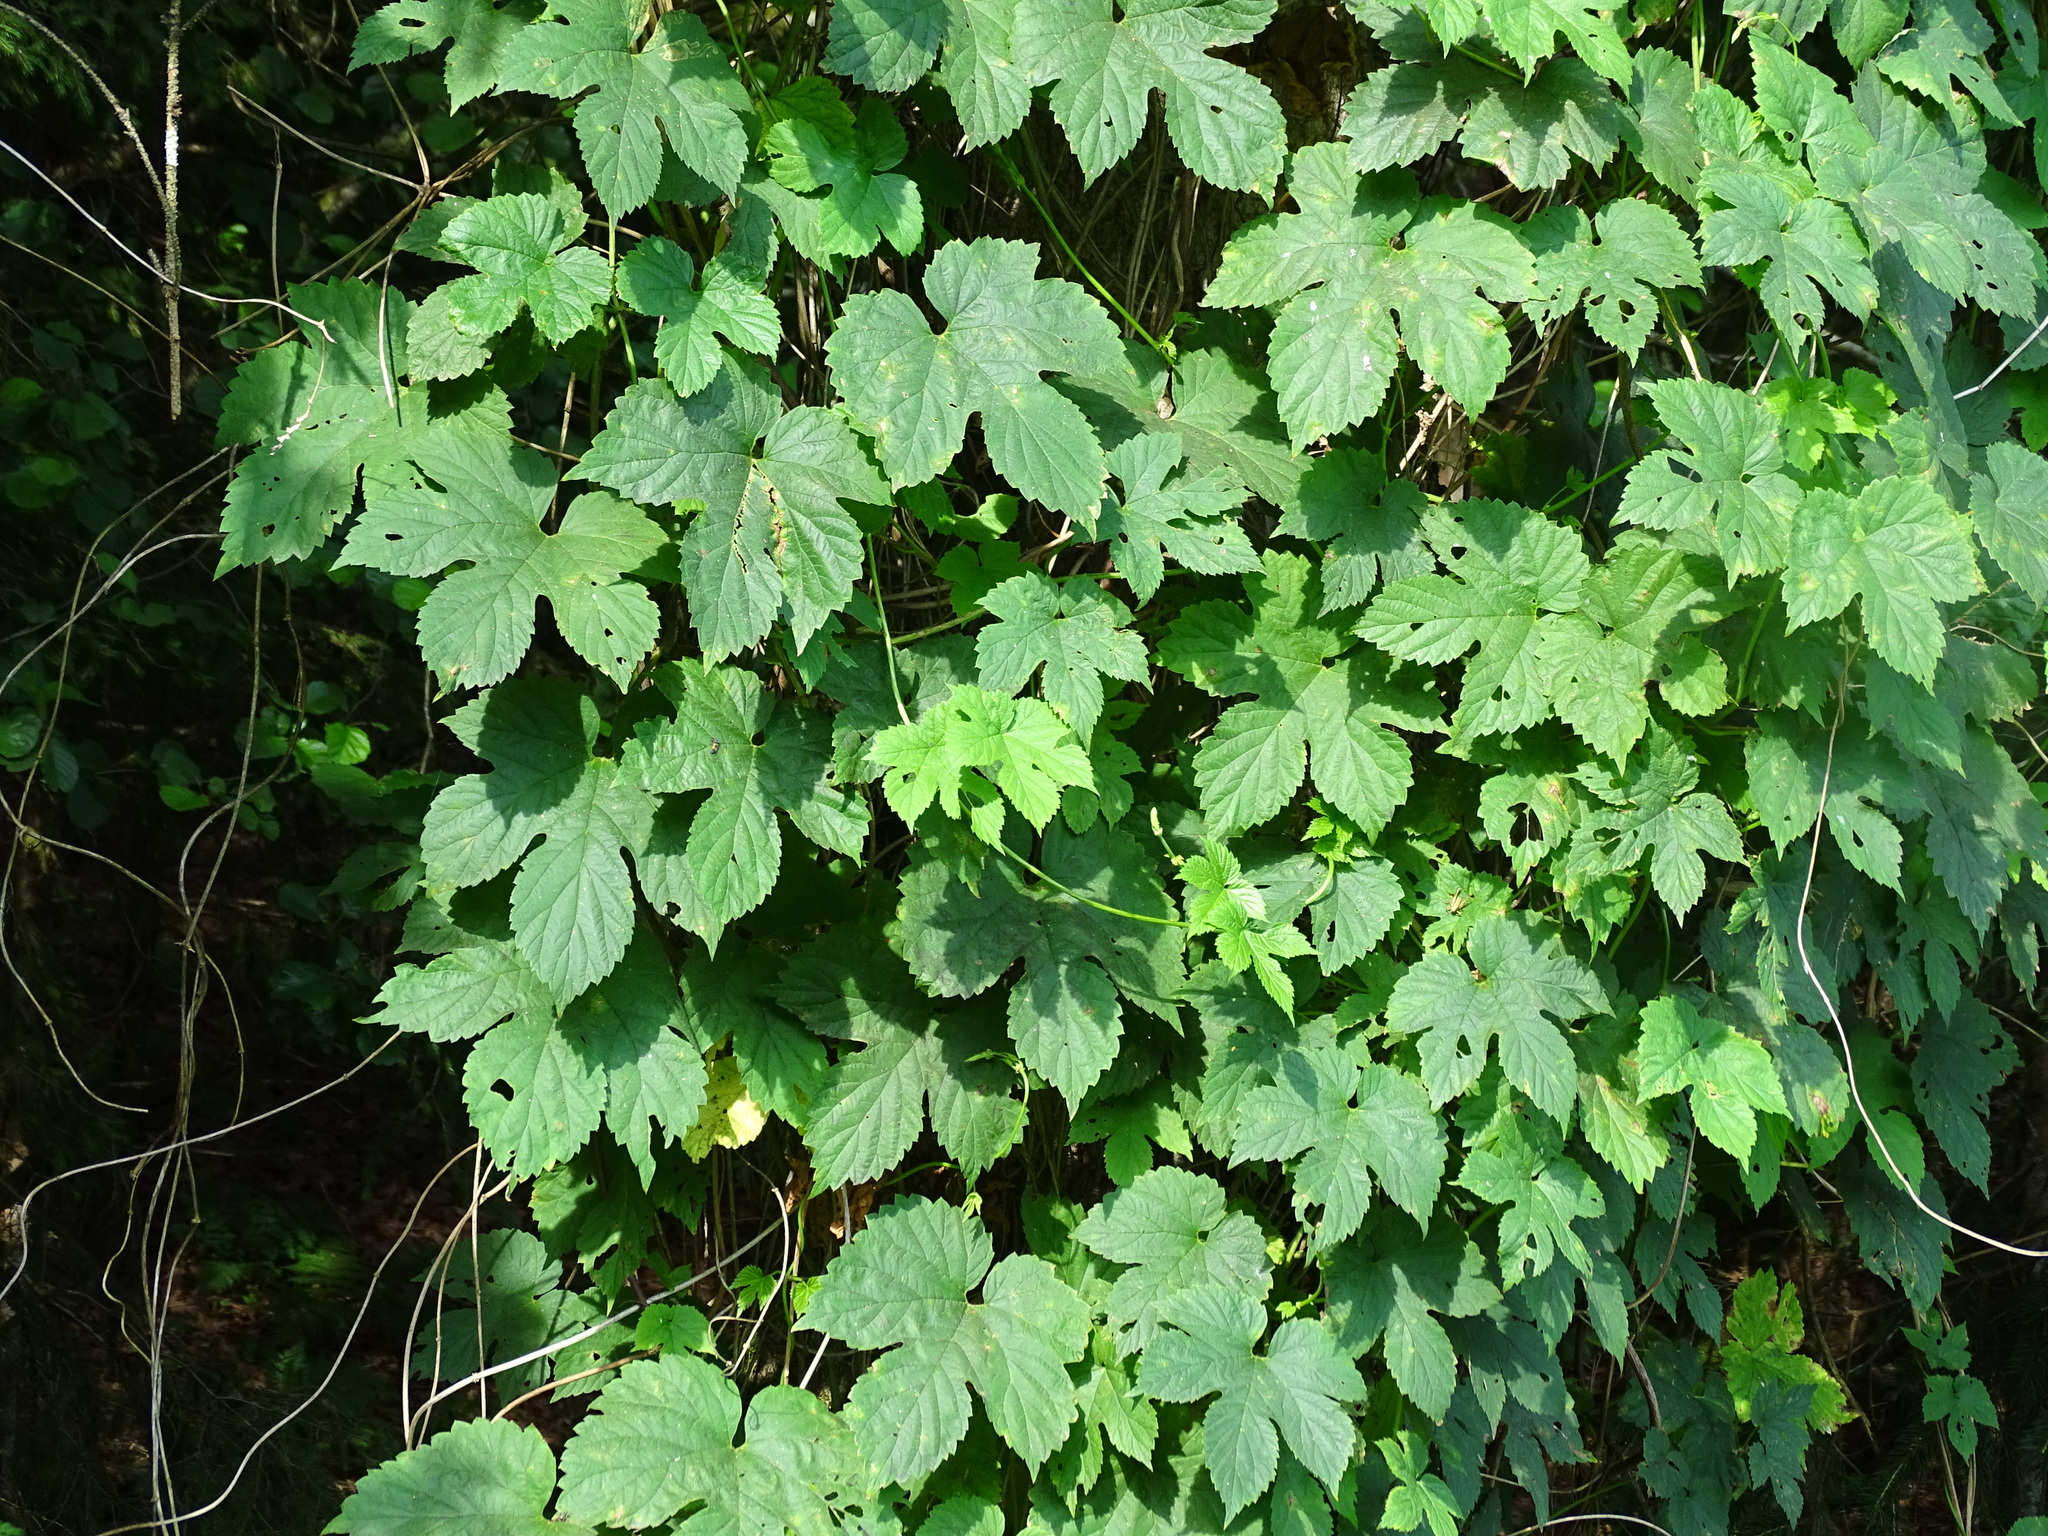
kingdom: Plantae
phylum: Tracheophyta
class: Magnoliopsida
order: Rosales
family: Cannabaceae
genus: Humulus
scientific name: Humulus lupulus
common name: Hop
